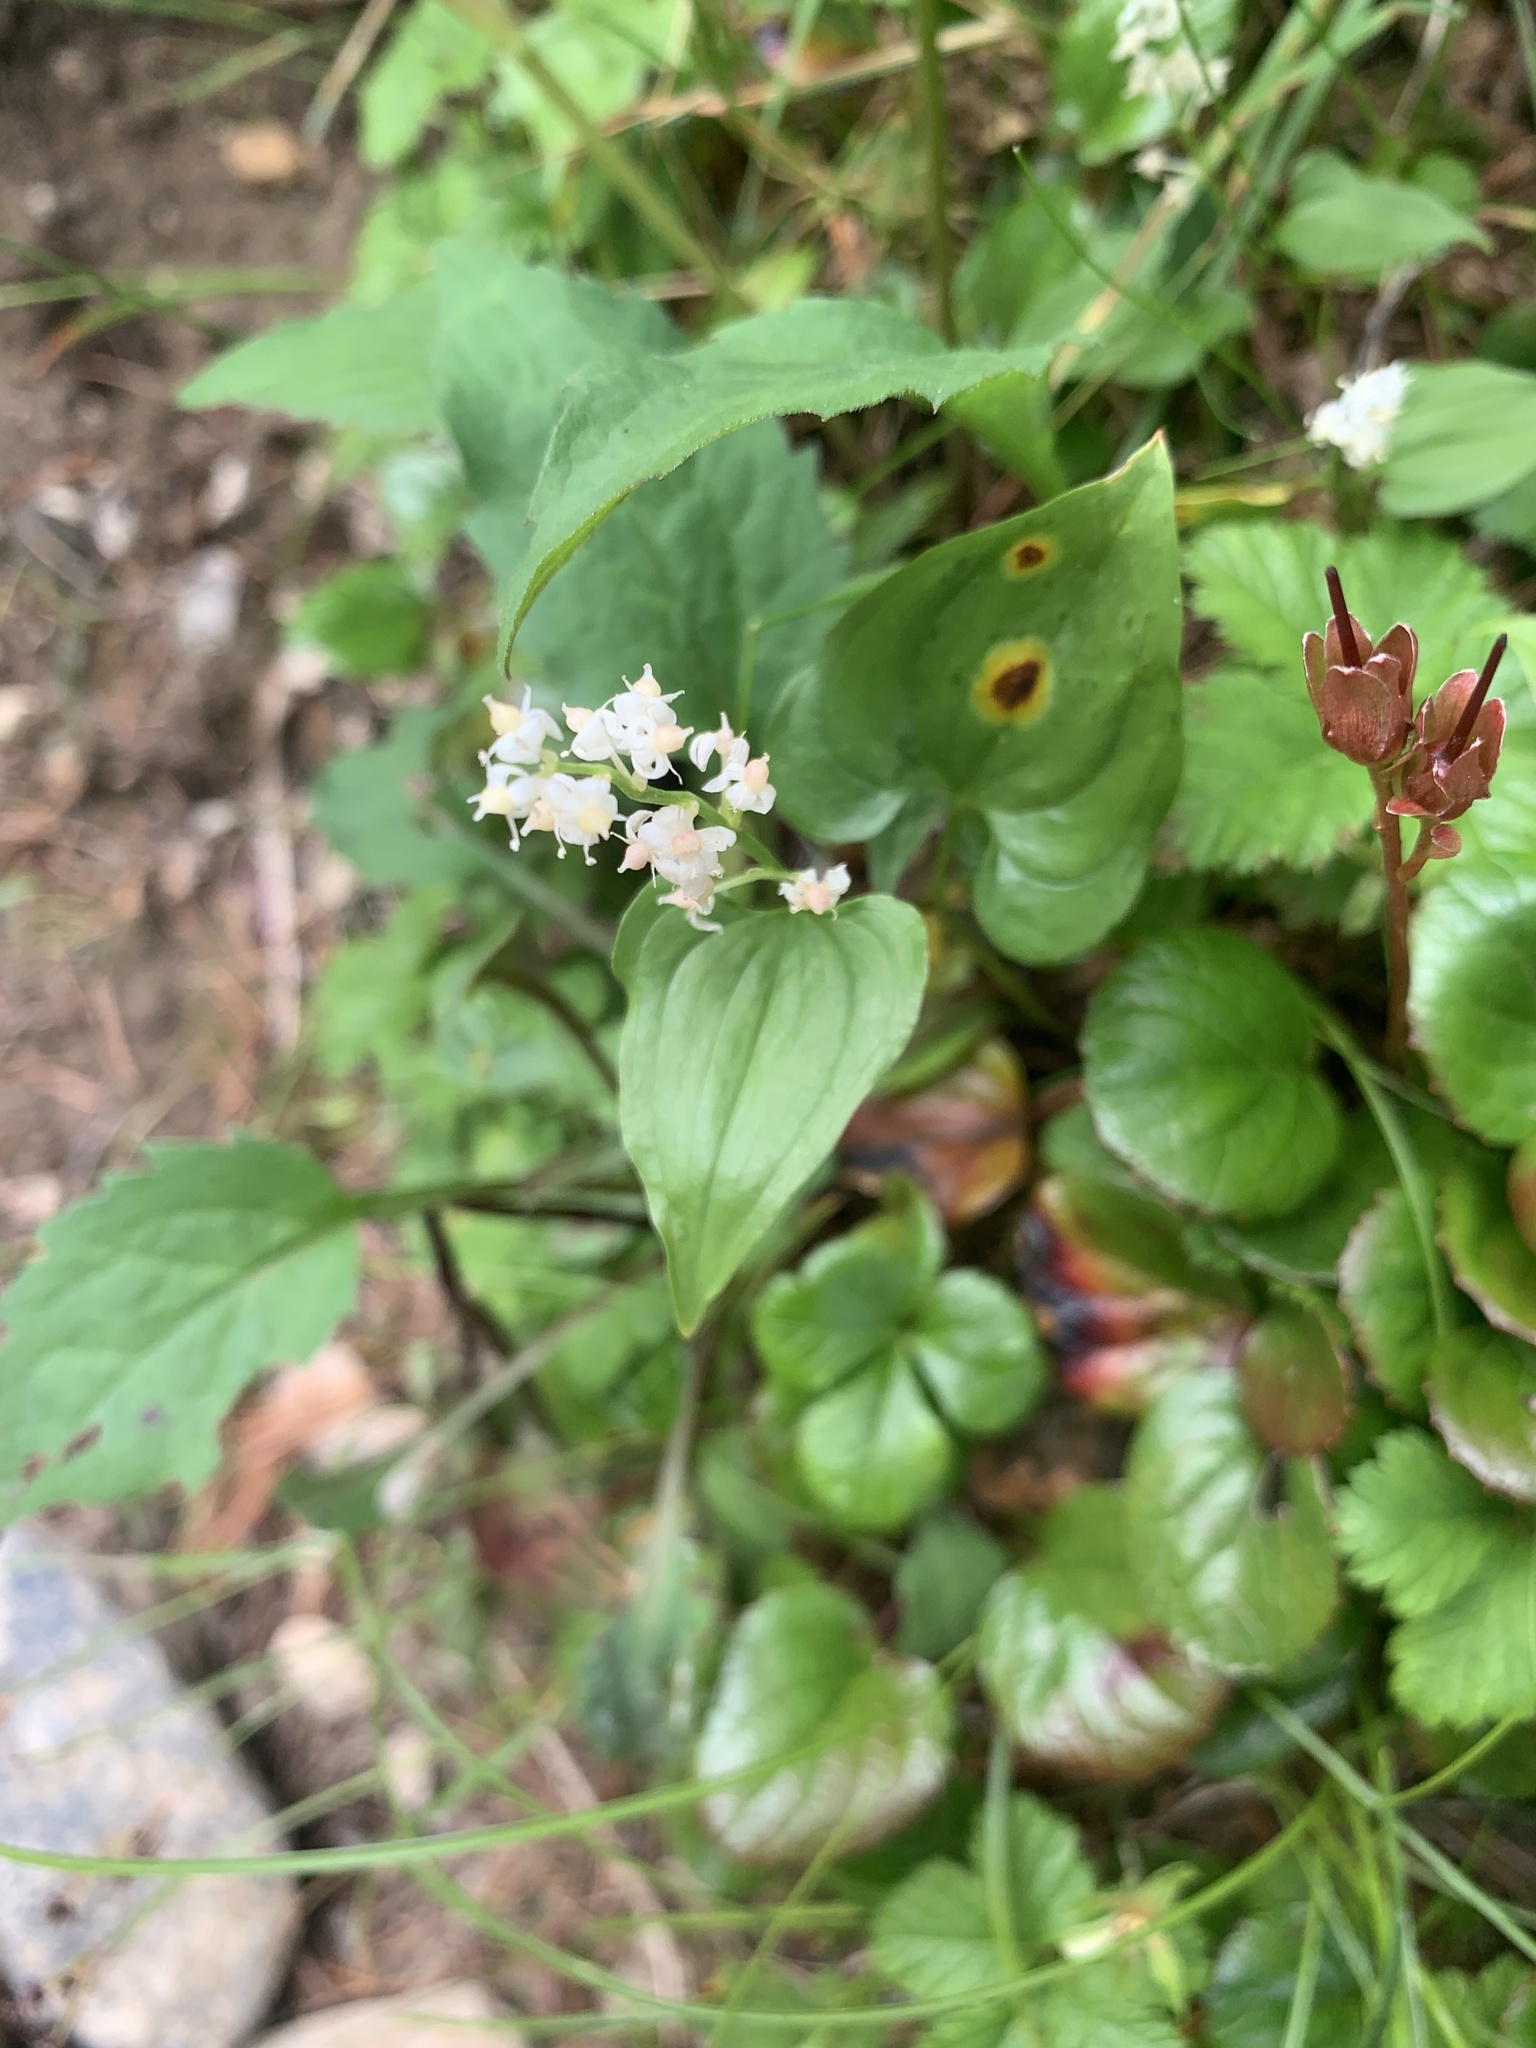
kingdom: Plantae
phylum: Tracheophyta
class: Liliopsida
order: Asparagales
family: Asparagaceae
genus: Maianthemum
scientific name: Maianthemum dilatatum
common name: False lily-of-the-valley
